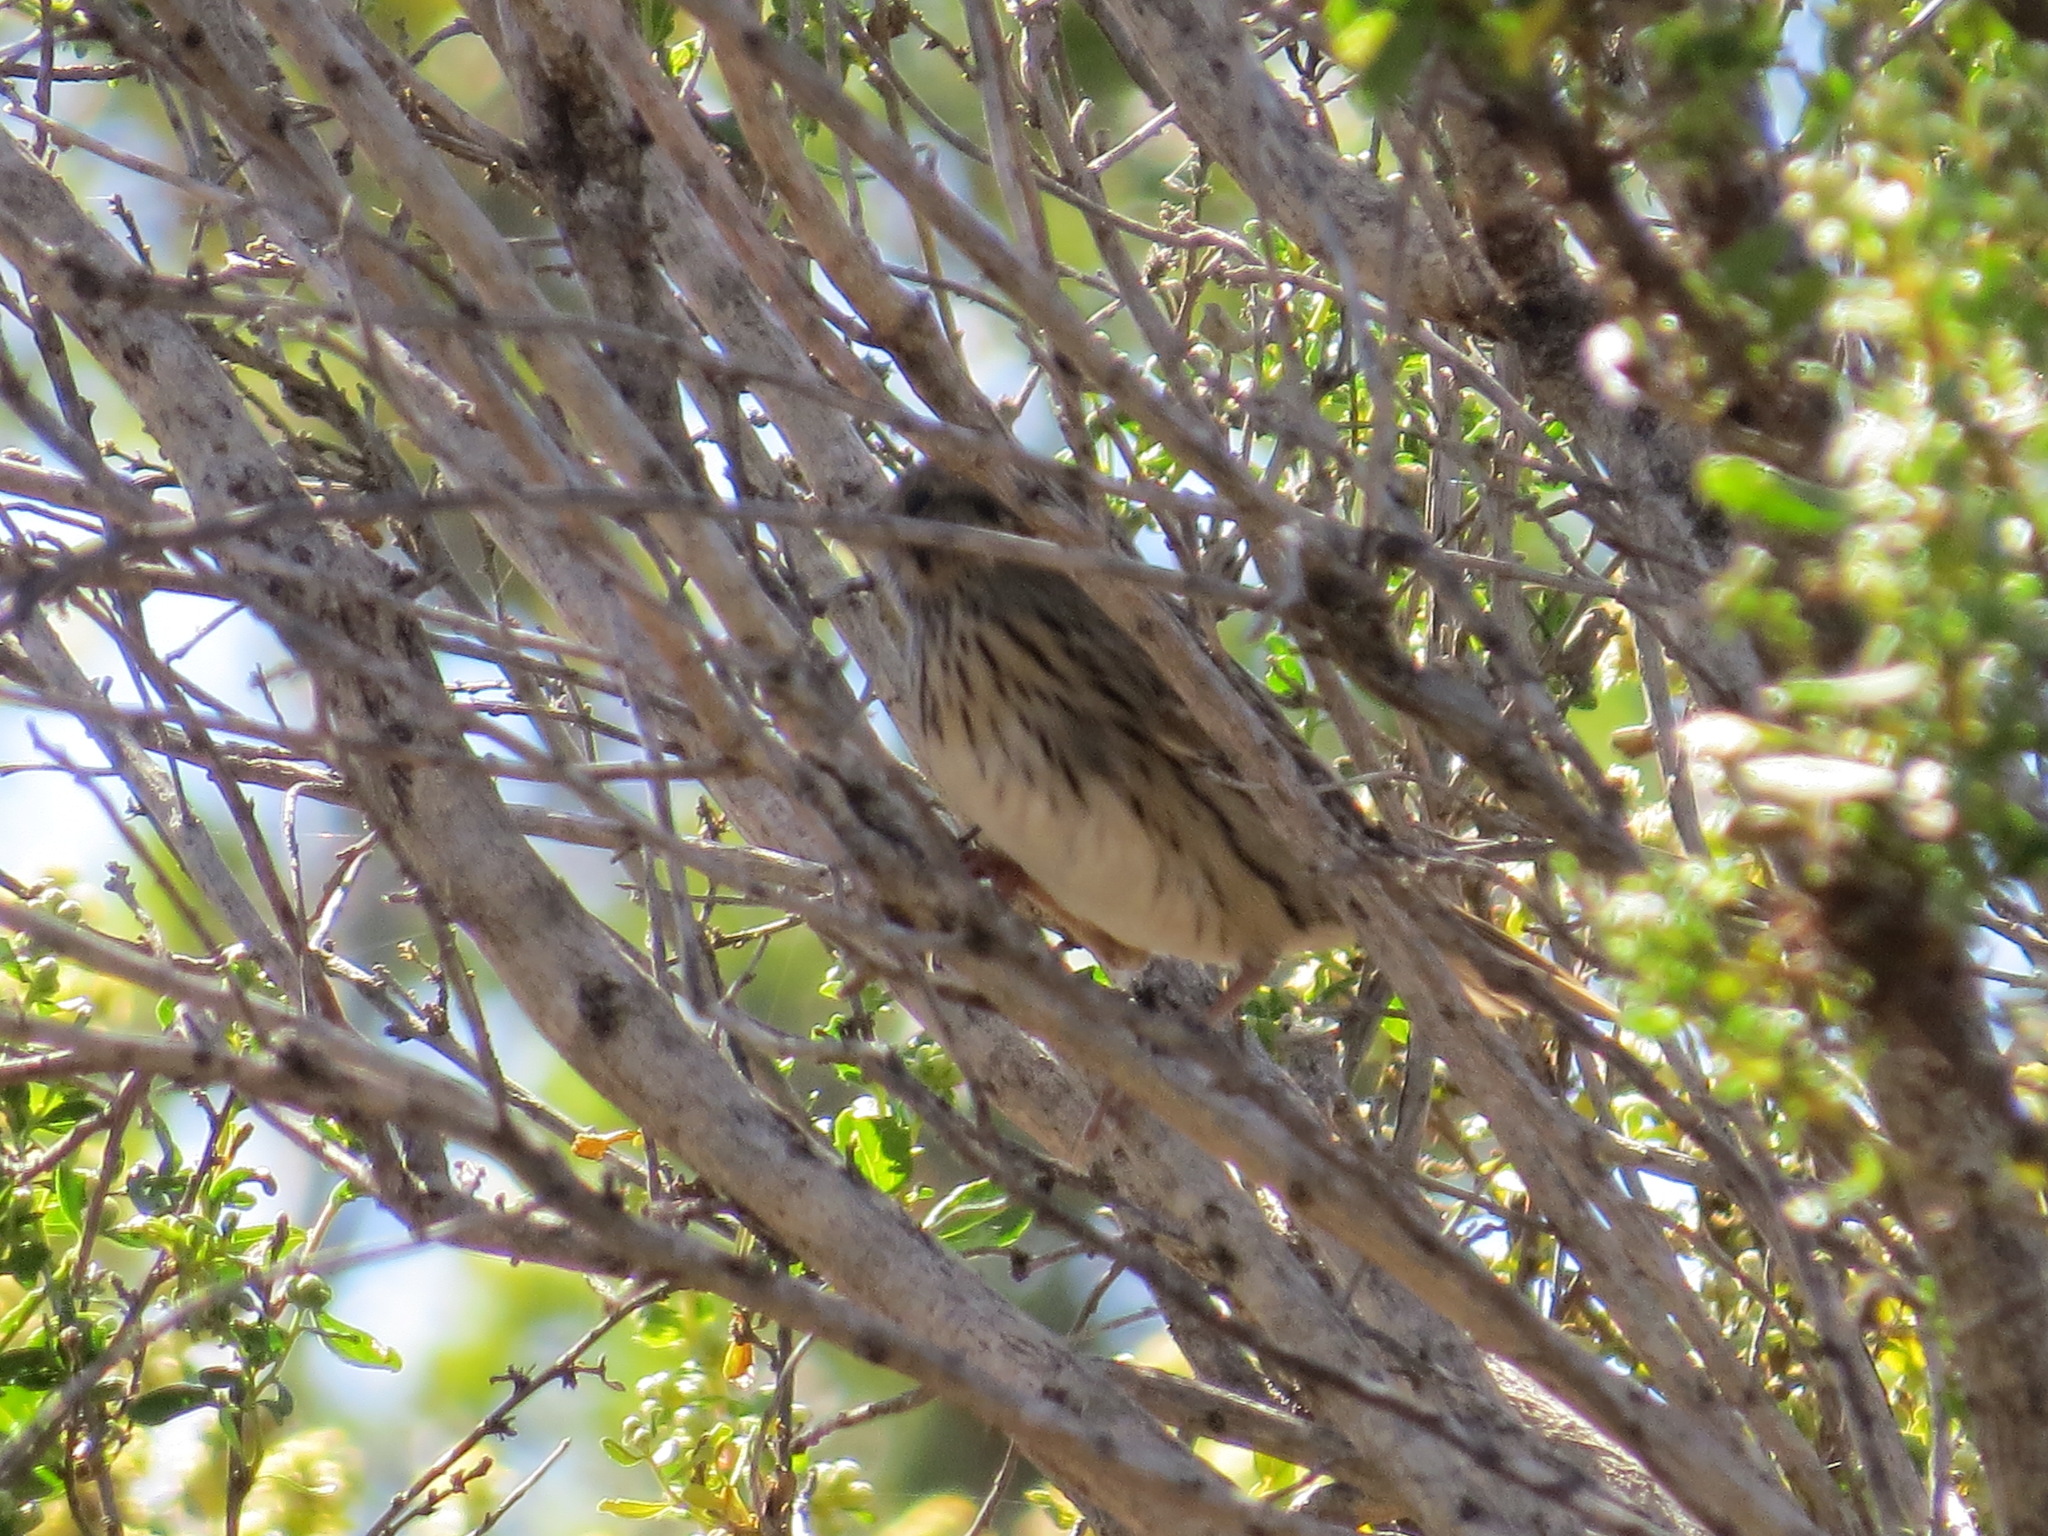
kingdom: Animalia
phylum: Chordata
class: Aves
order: Passeriformes
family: Passerellidae
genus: Melospiza
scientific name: Melospiza lincolnii
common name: Lincoln's sparrow
